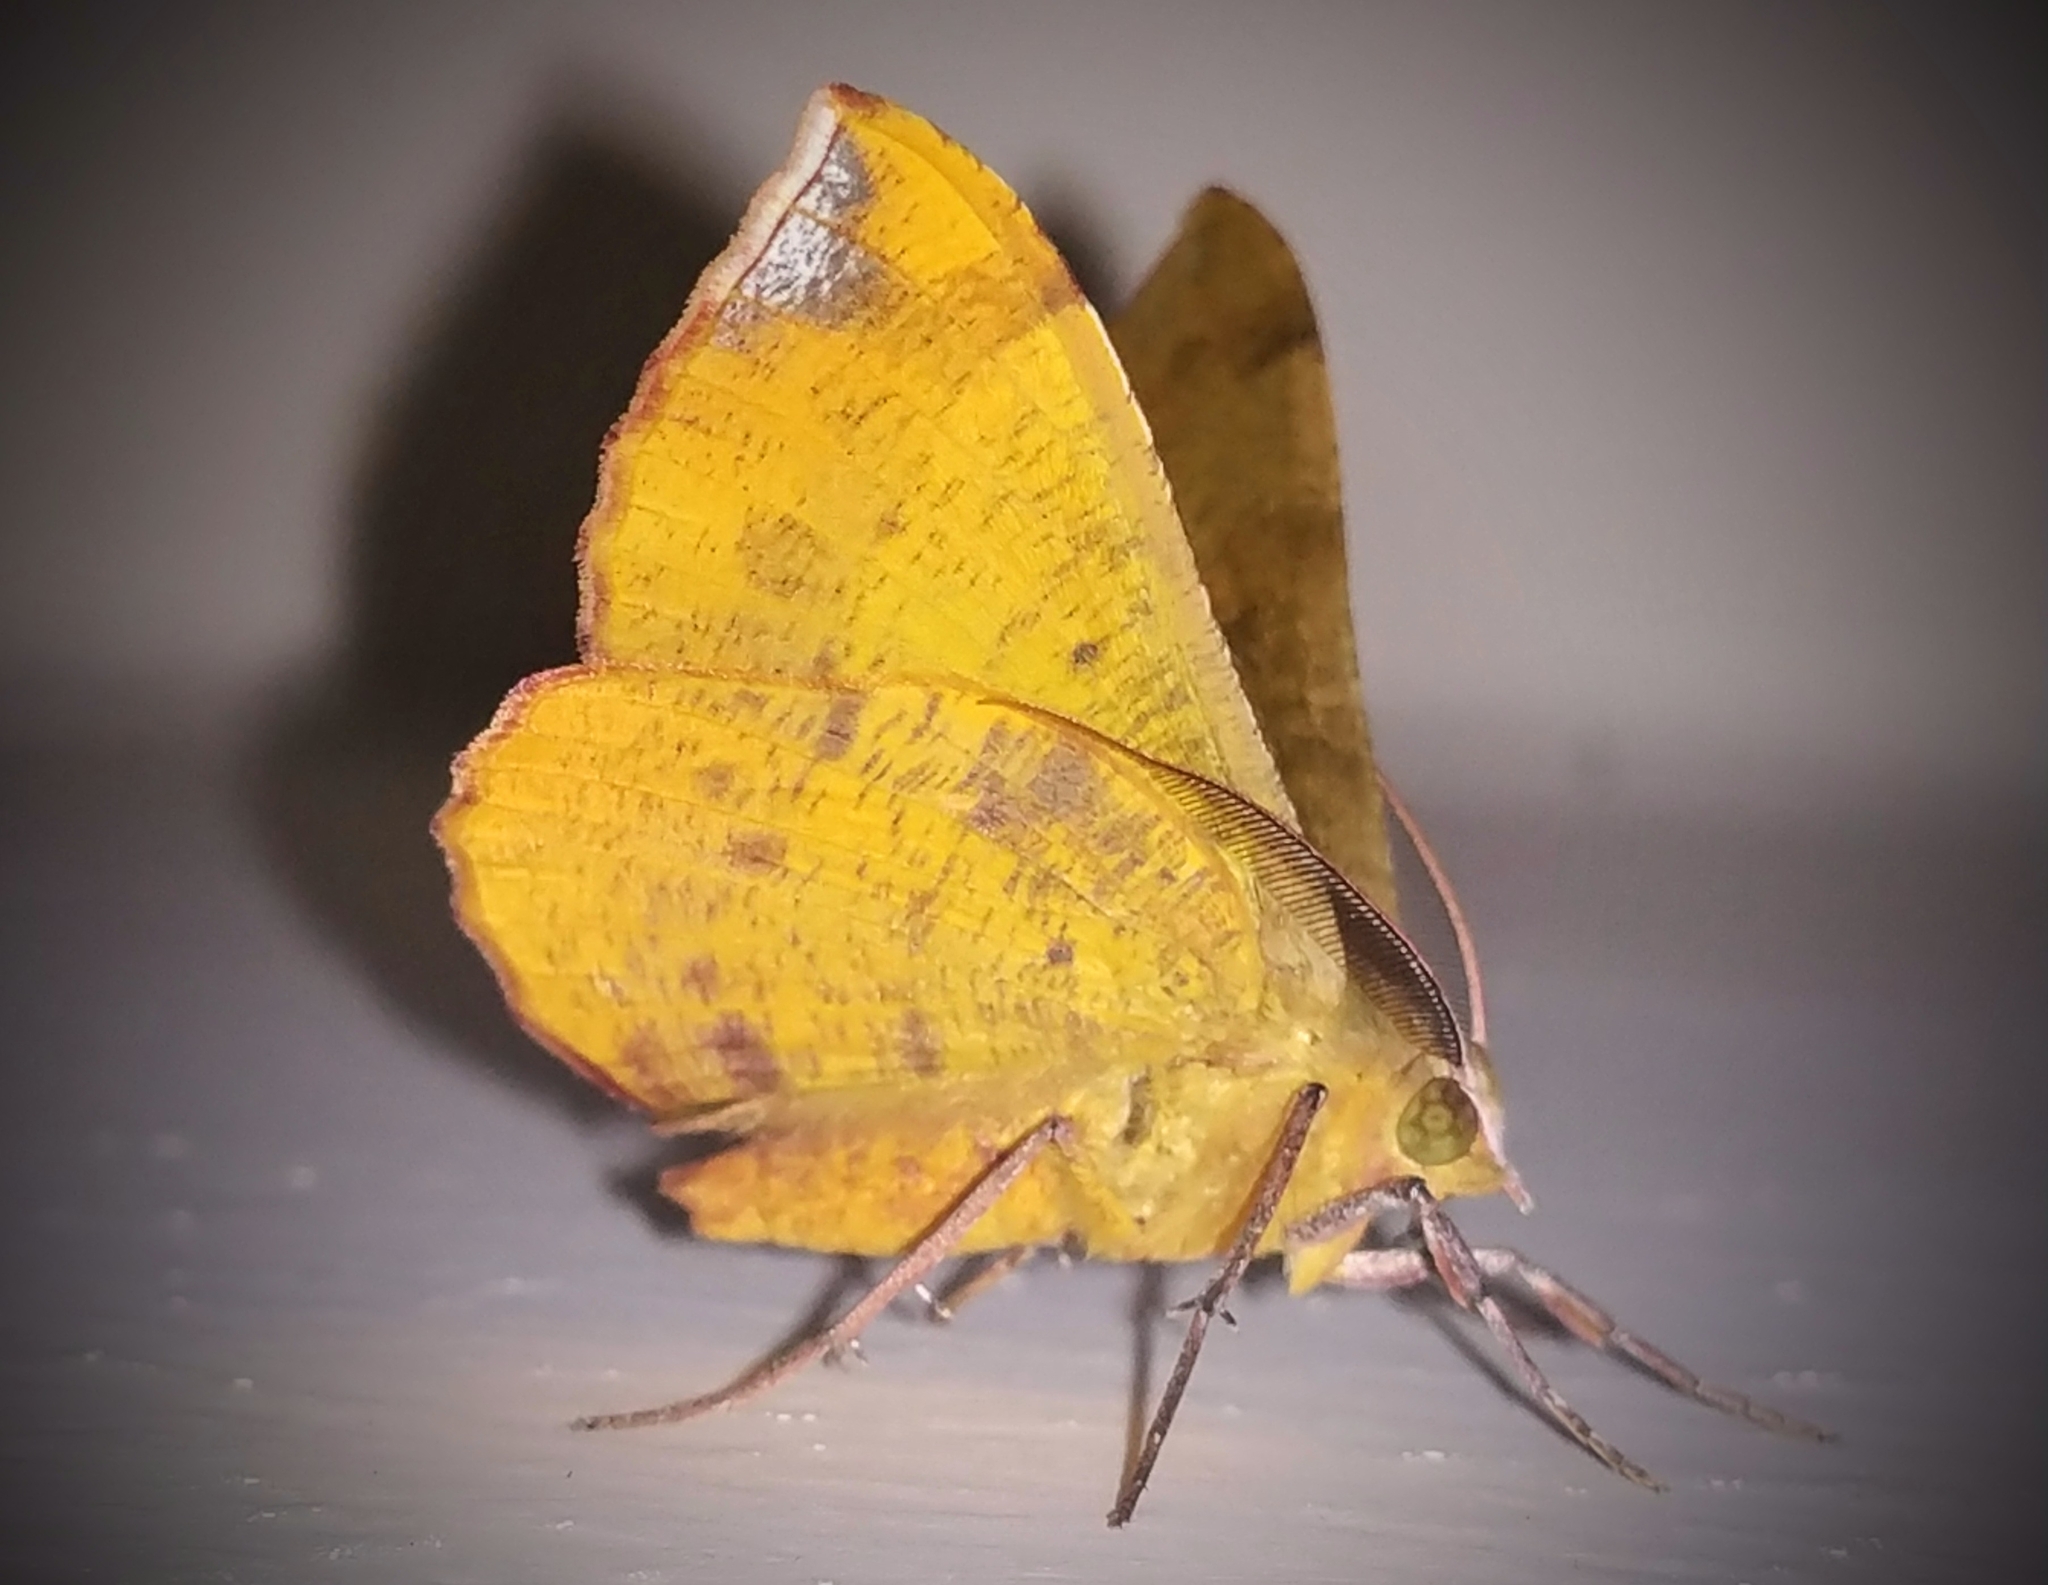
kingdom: Animalia
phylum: Arthropoda
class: Insecta
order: Lepidoptera
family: Geometridae
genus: Hyperythra
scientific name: Hyperythra lutea
